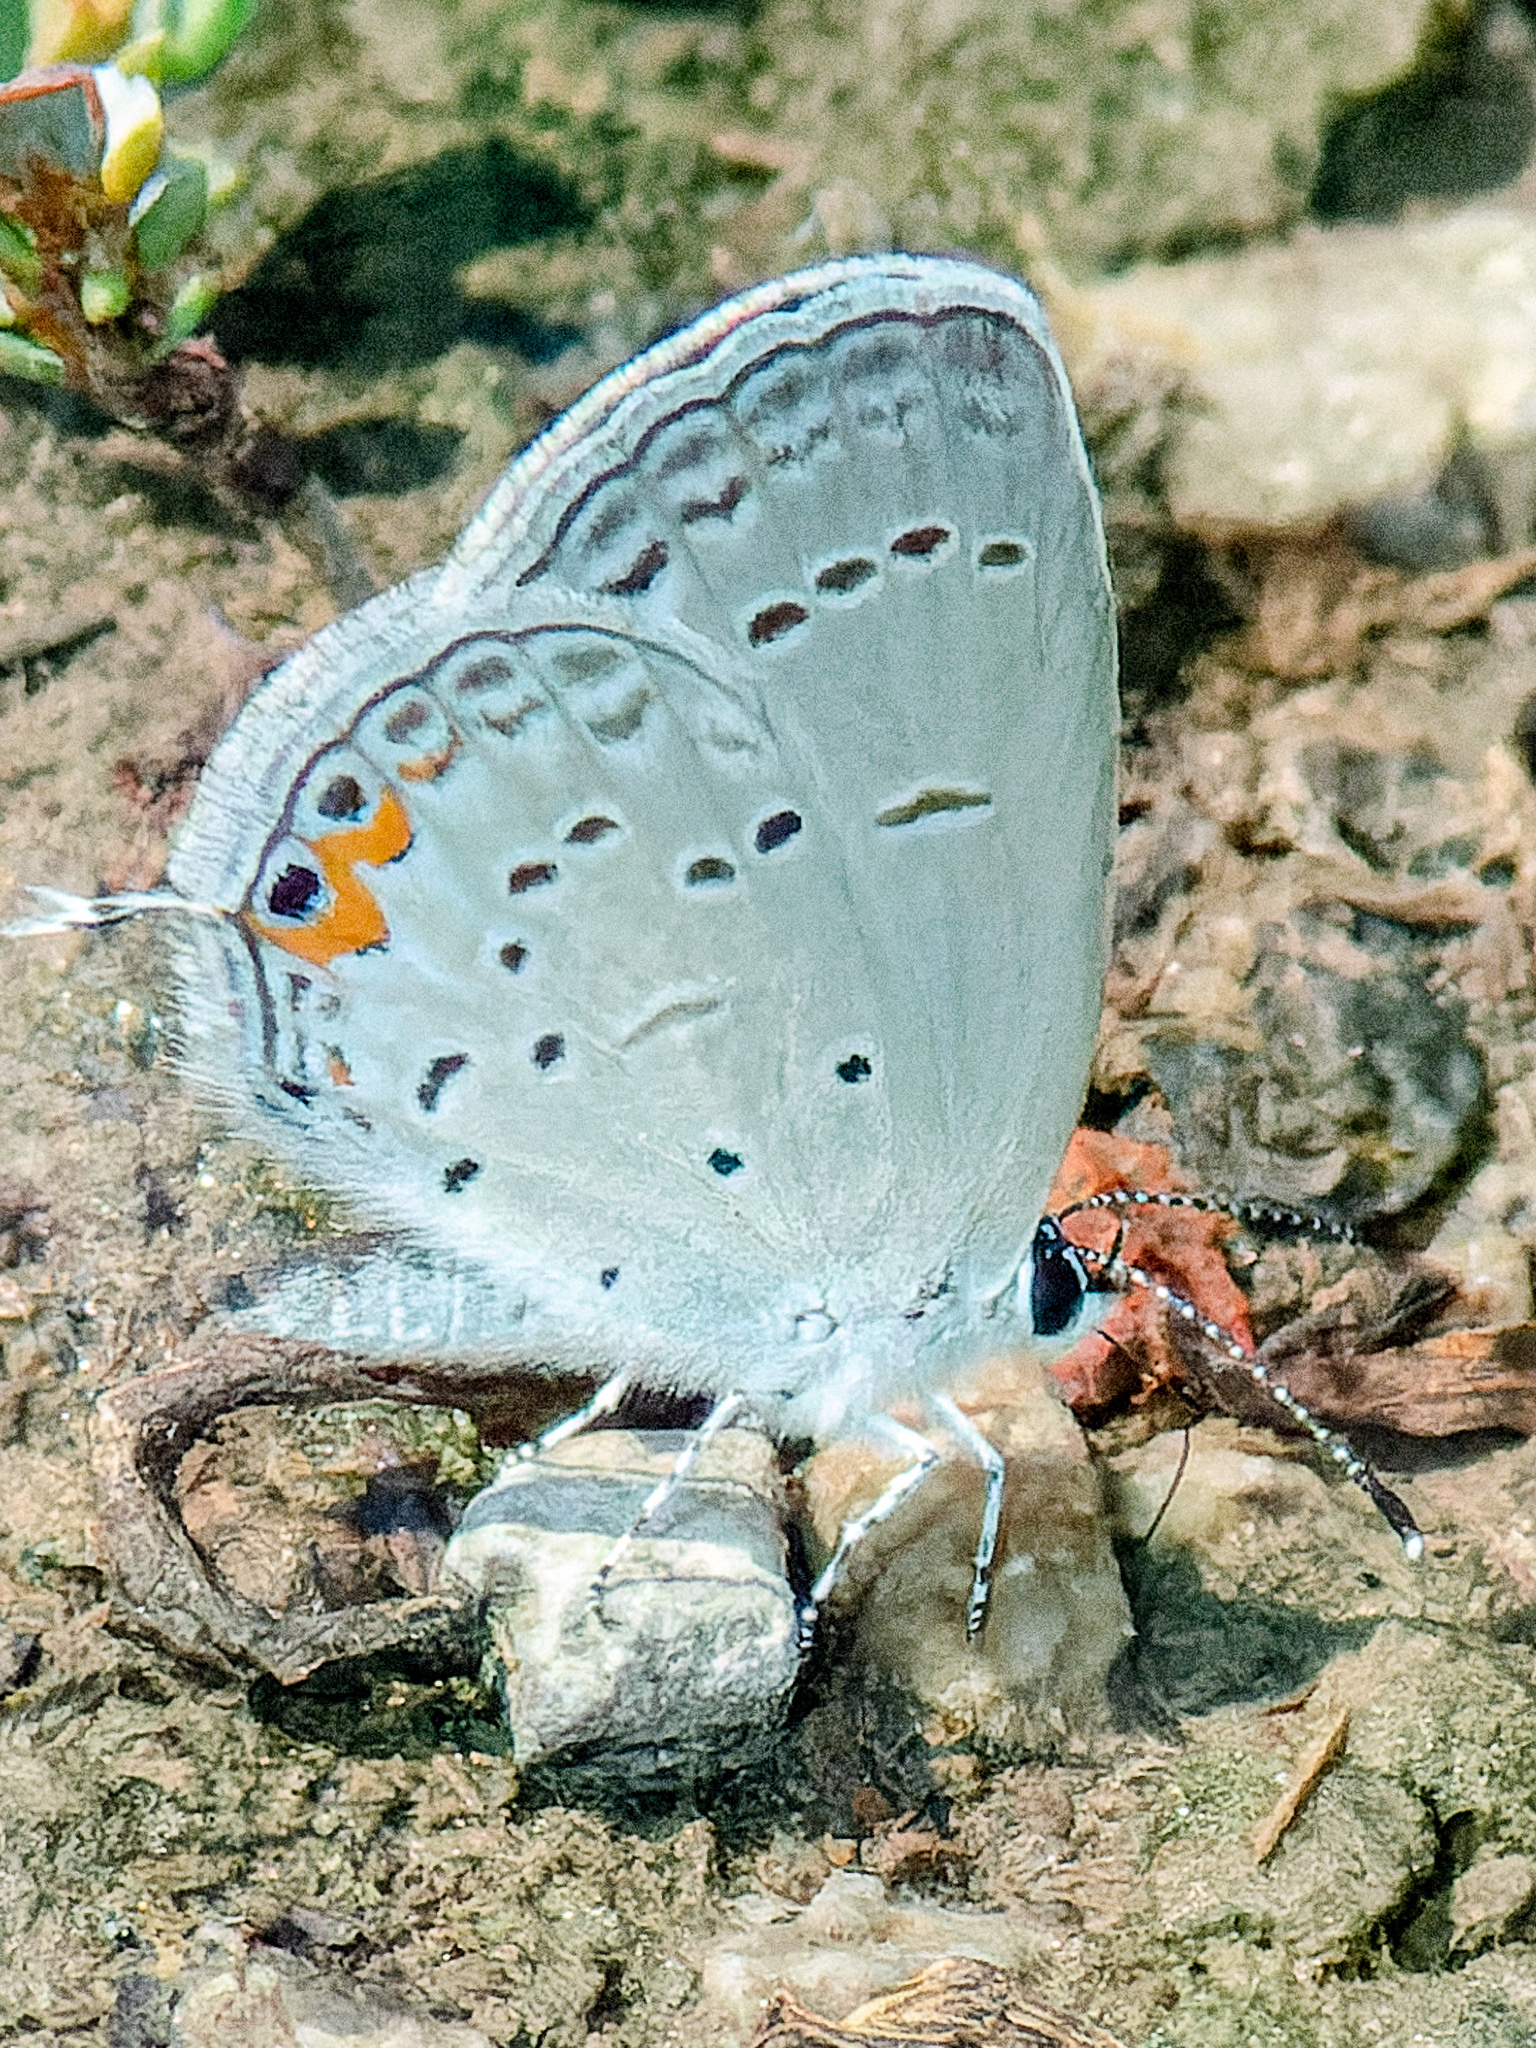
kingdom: Animalia
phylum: Arthropoda
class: Insecta
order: Lepidoptera
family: Lycaenidae
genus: Elkalyce
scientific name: Elkalyce comyntas
